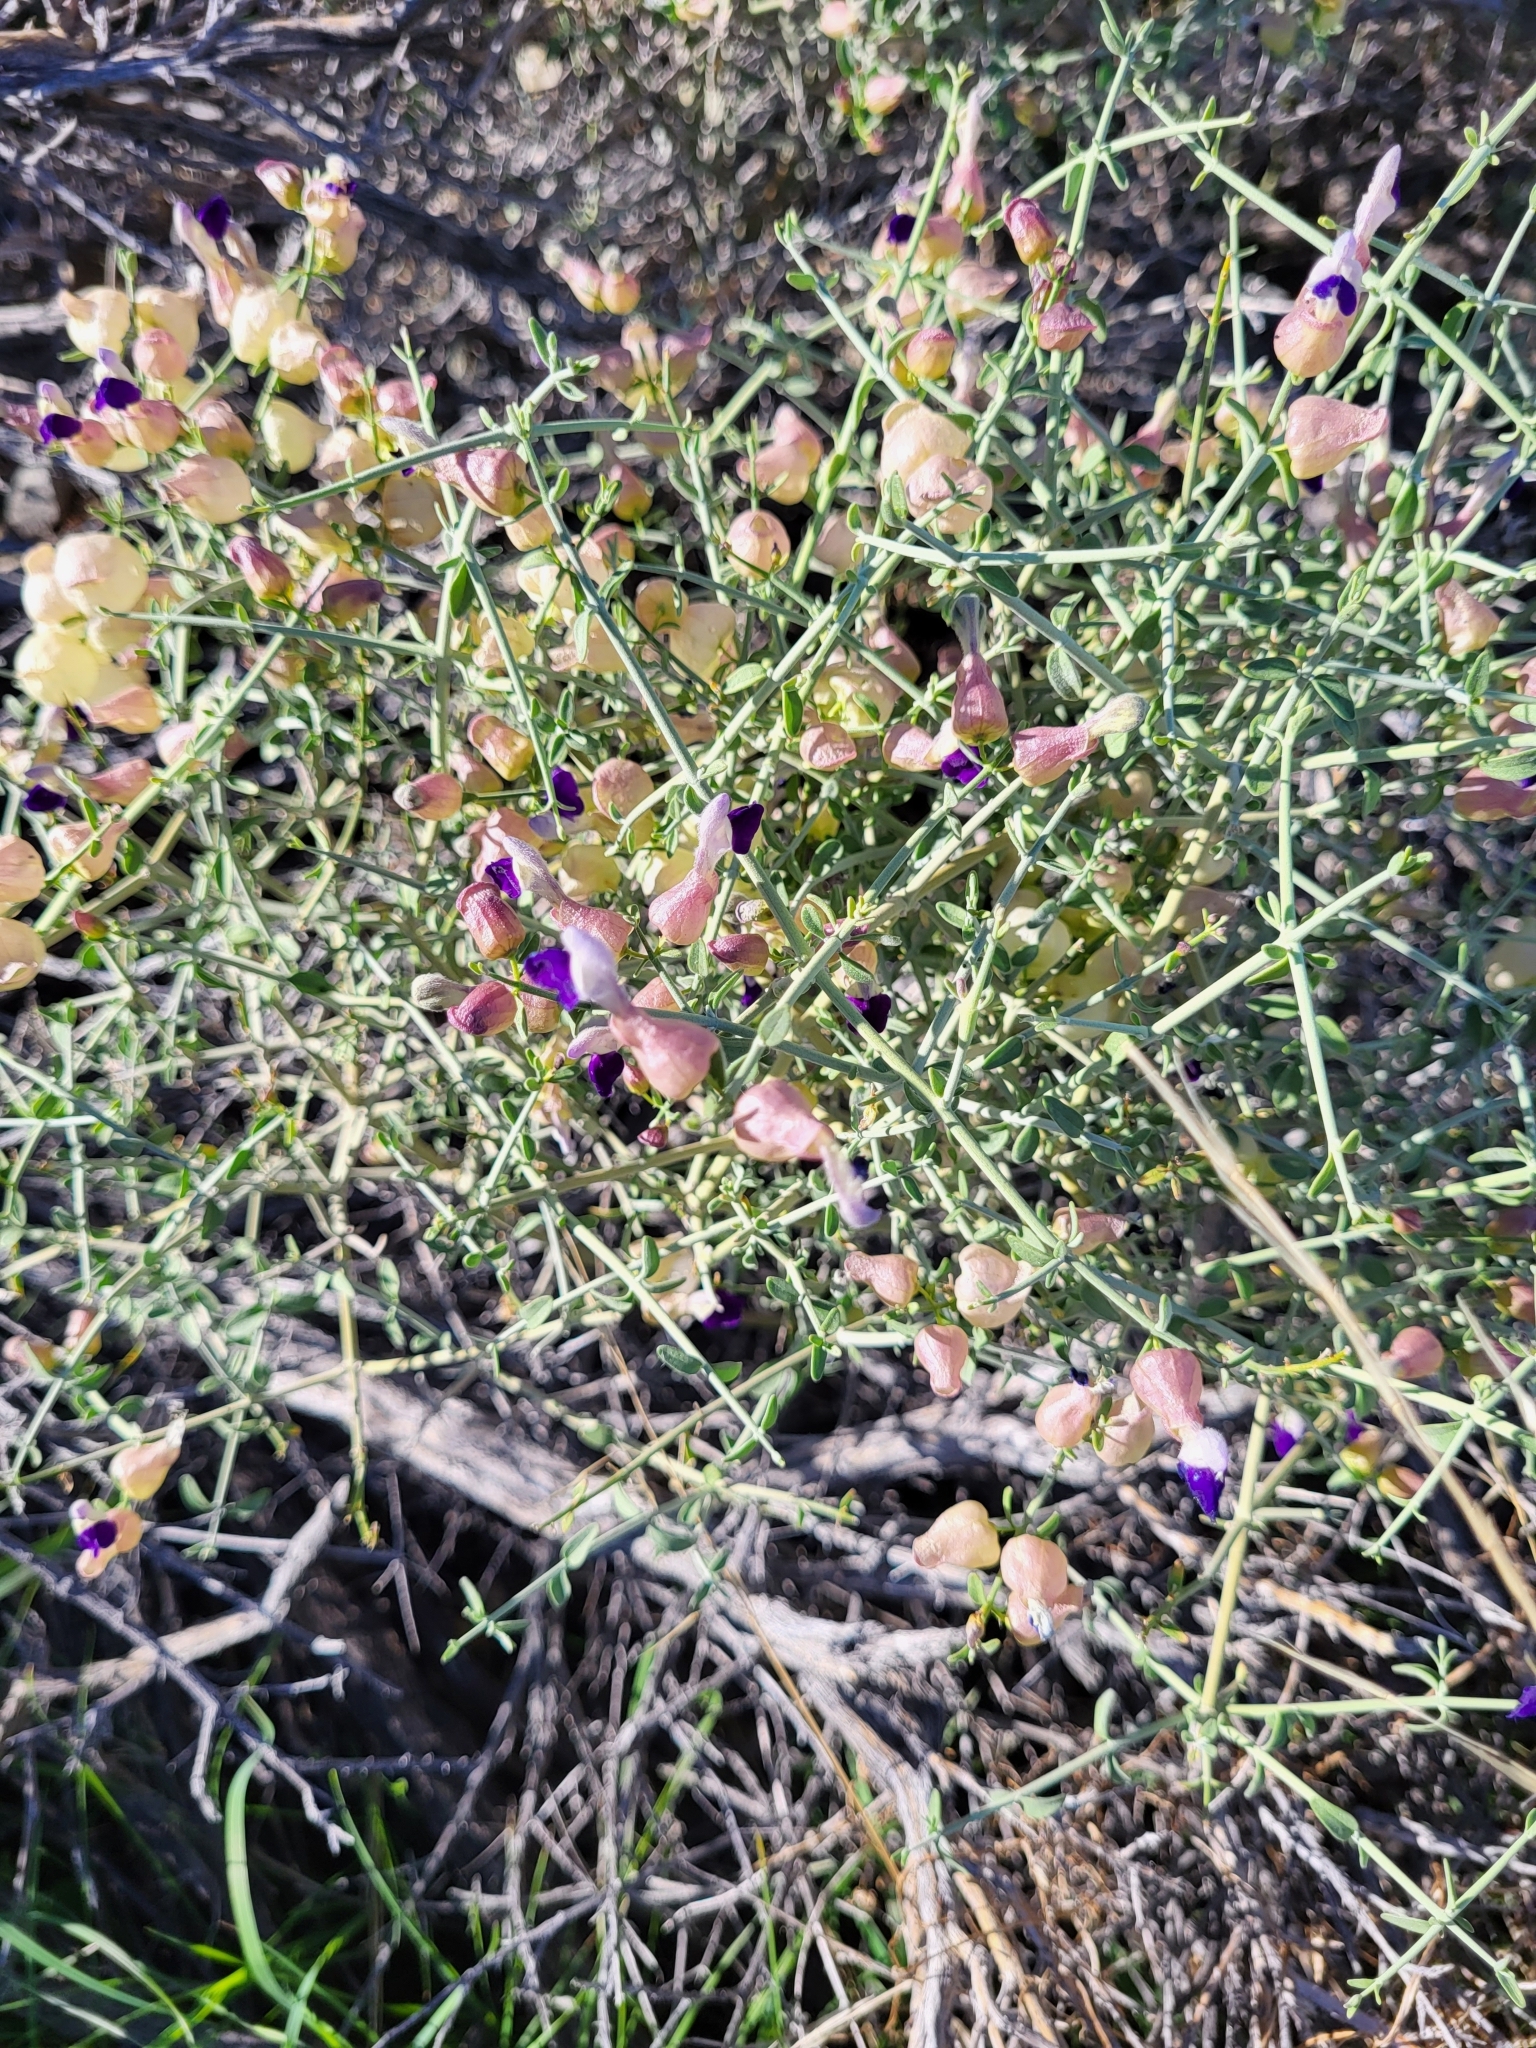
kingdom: Plantae
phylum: Tracheophyta
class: Magnoliopsida
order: Lamiales
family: Lamiaceae
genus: Scutellaria
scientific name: Scutellaria mexicana
